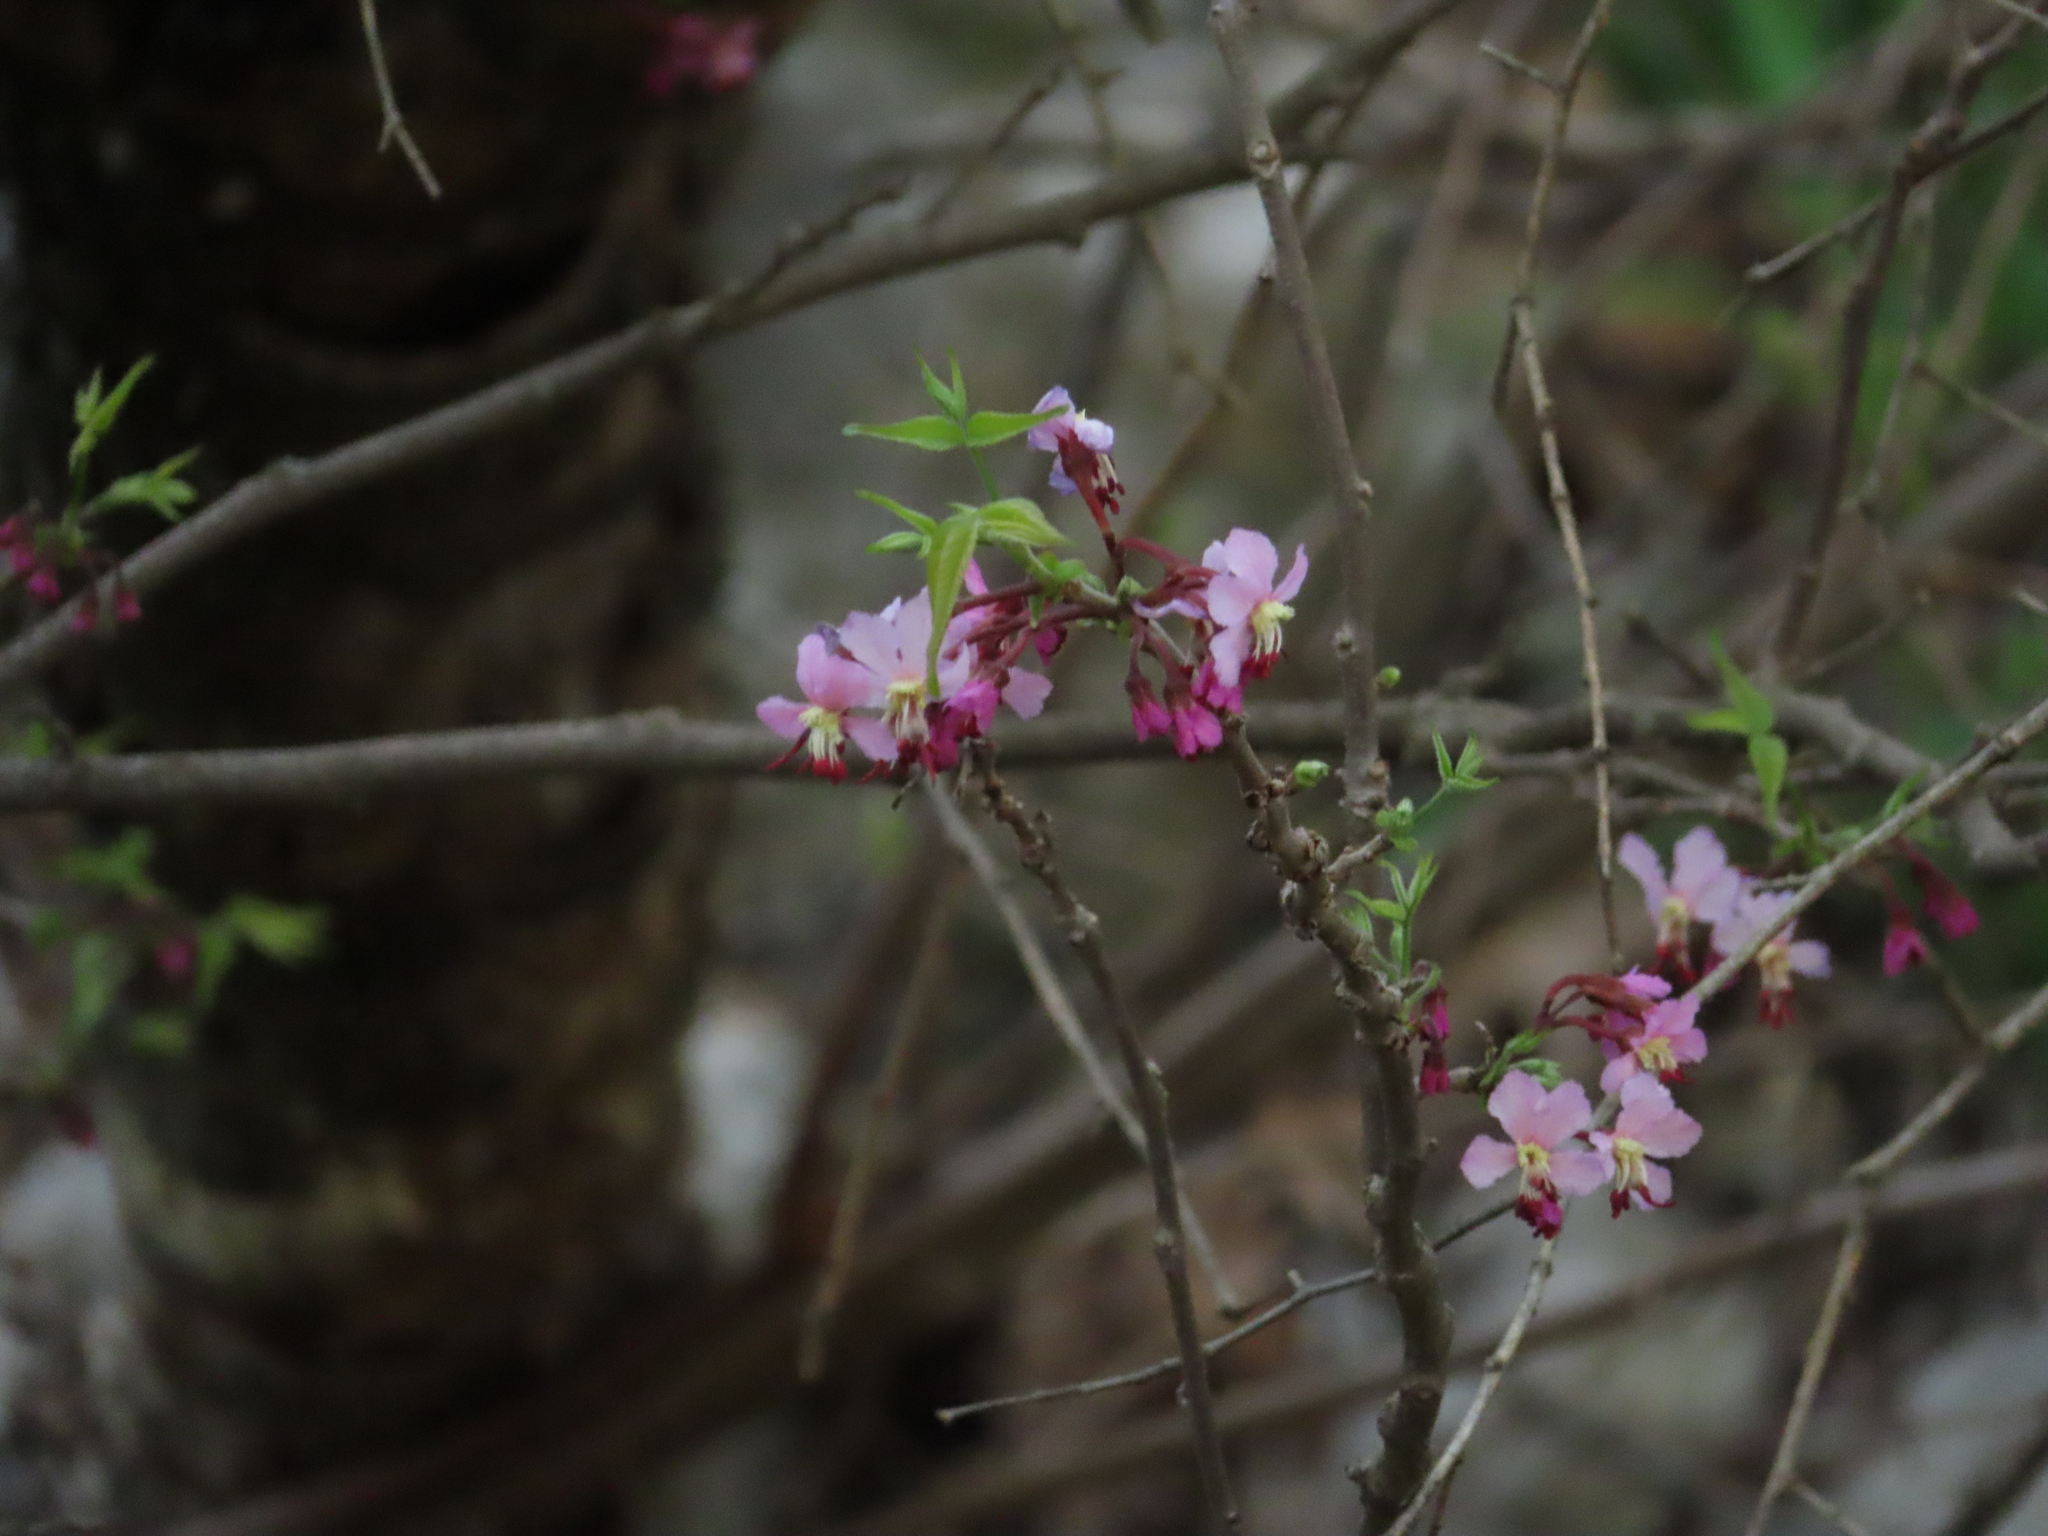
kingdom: Plantae
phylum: Tracheophyta
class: Magnoliopsida
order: Sapindales
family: Sapindaceae
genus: Ungnadia
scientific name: Ungnadia speciosa
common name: Texas-buckeye
